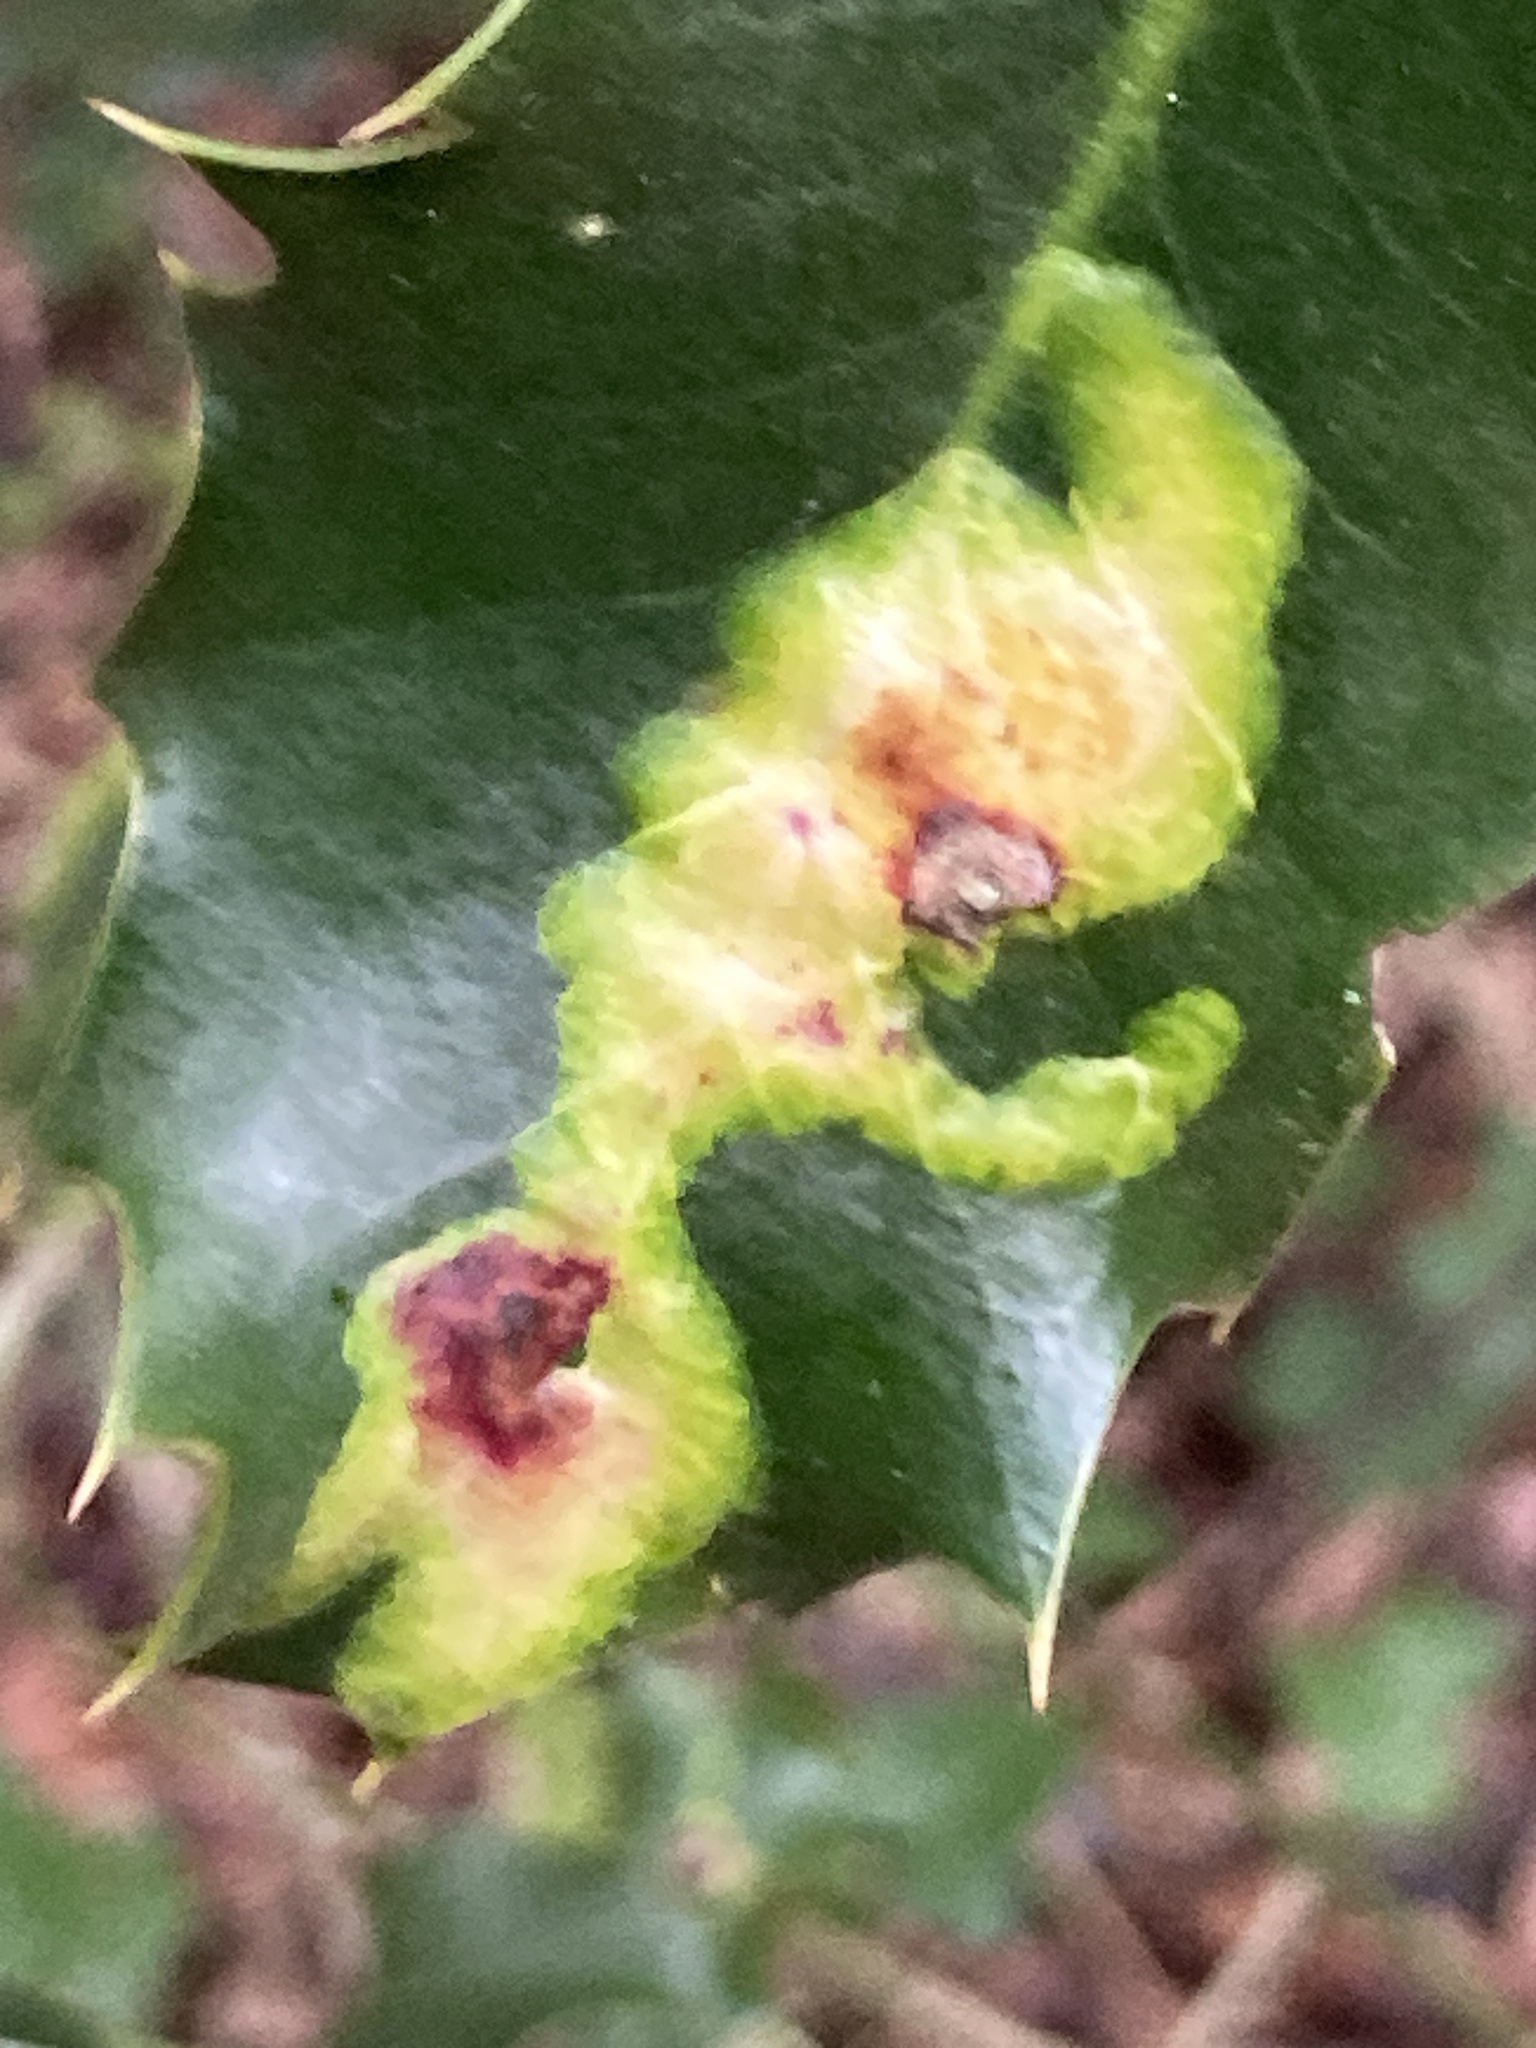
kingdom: Animalia
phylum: Arthropoda
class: Insecta
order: Diptera
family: Agromyzidae
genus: Phytomyza
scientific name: Phytomyza ilicis
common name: Holly leafminer
